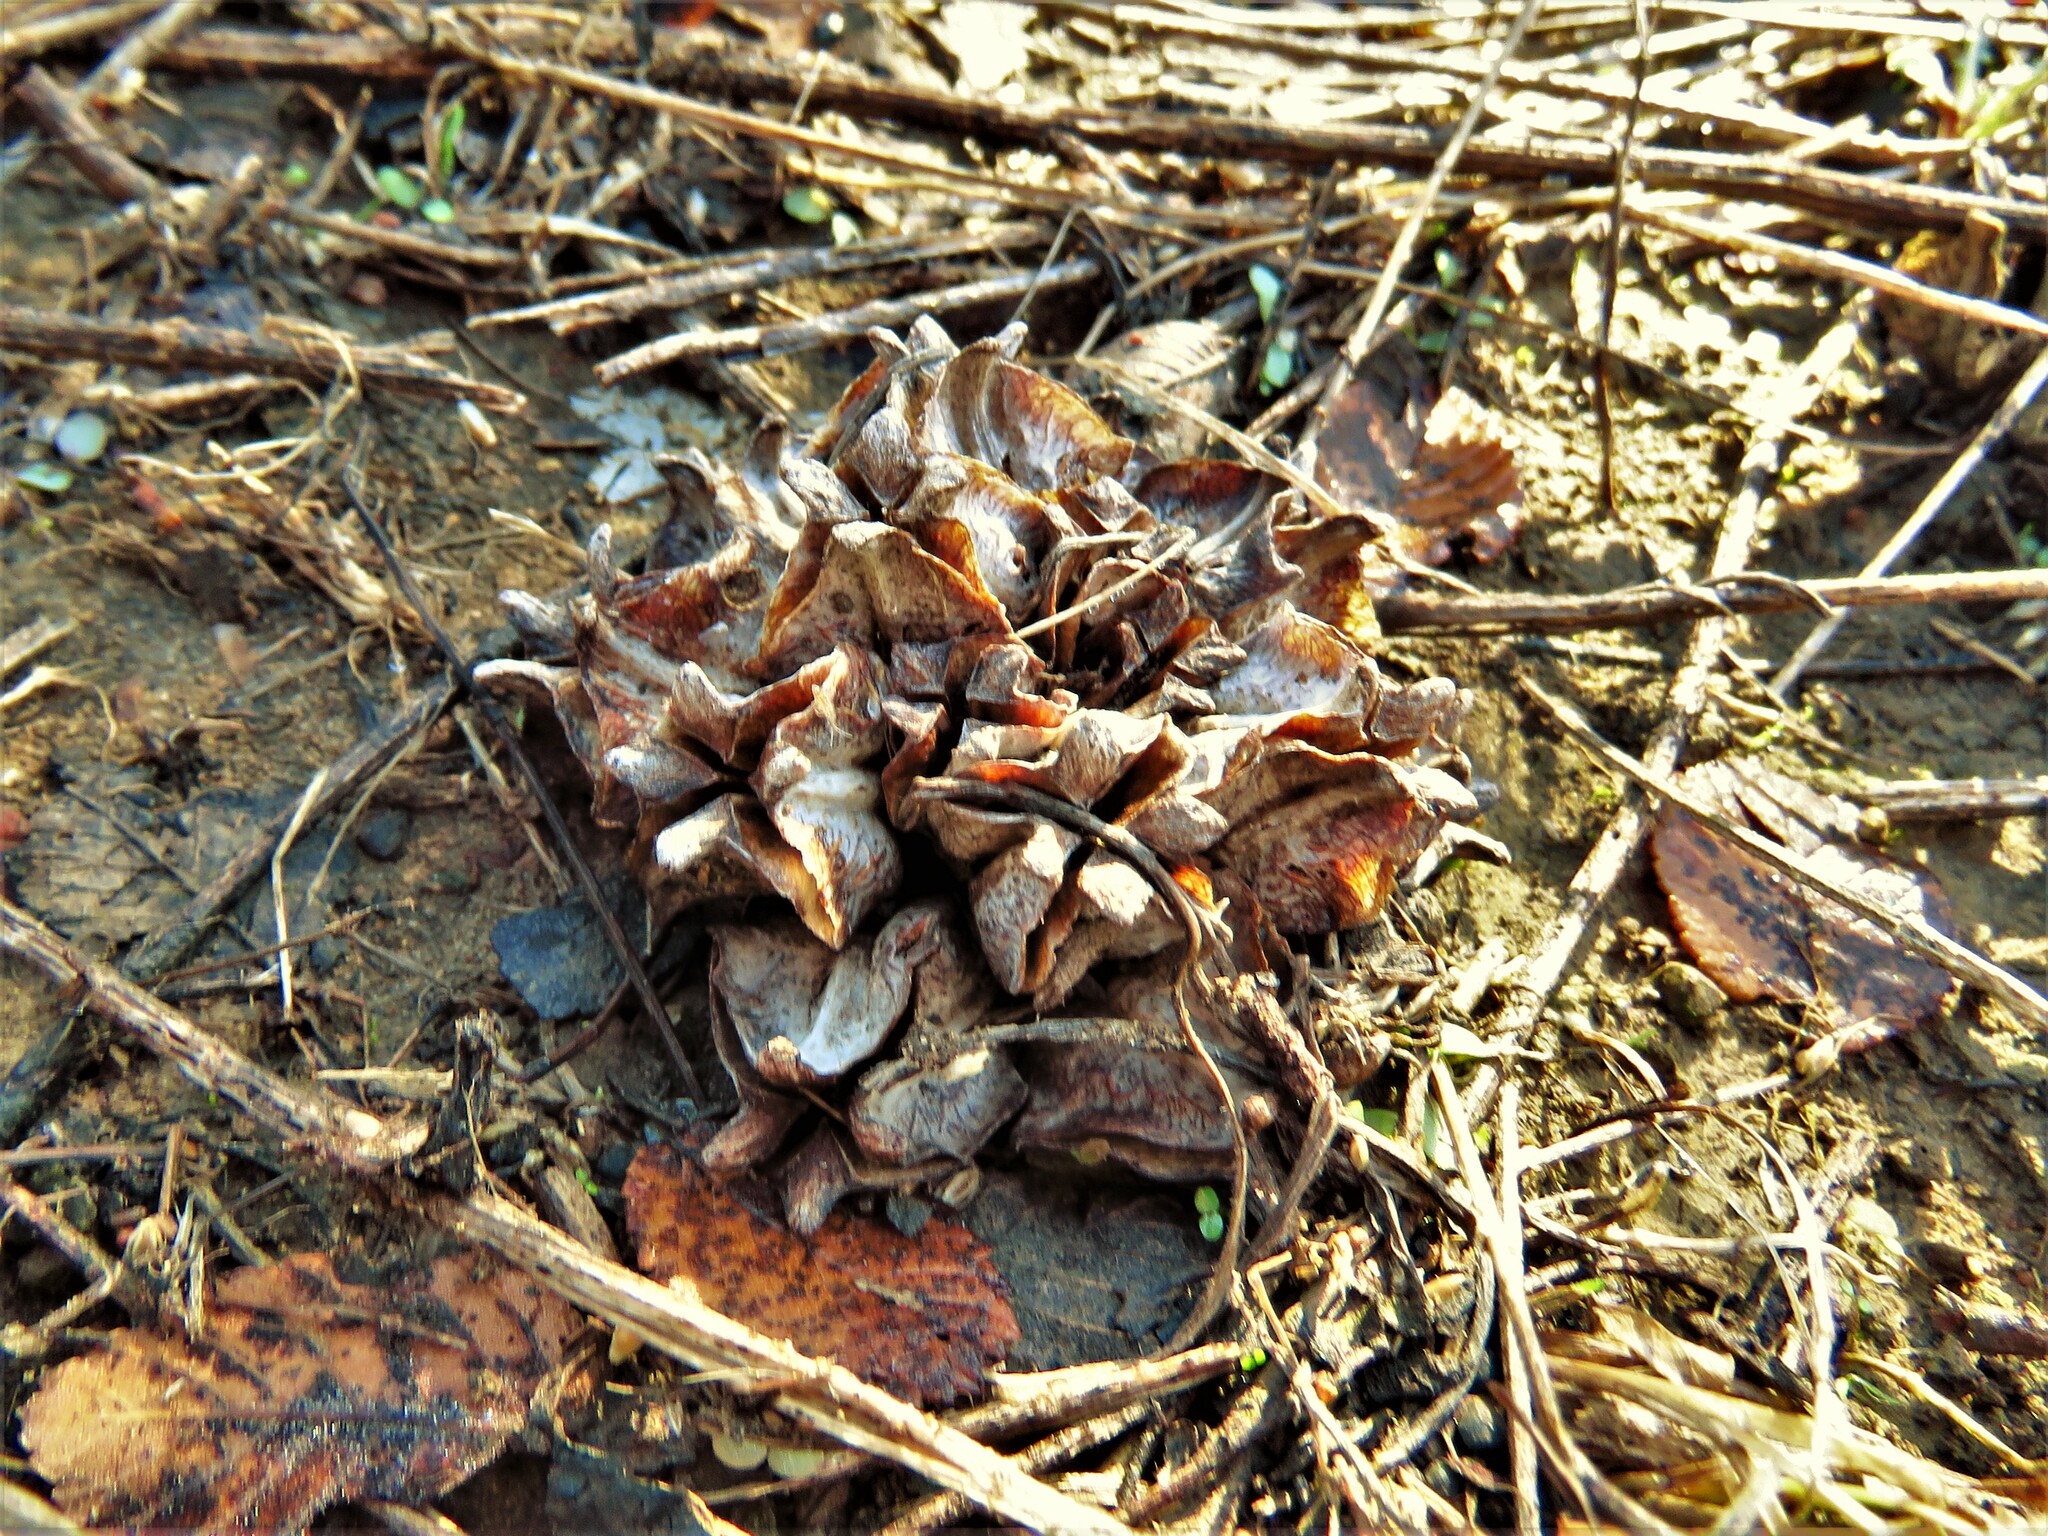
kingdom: Plantae
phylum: Tracheophyta
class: Magnoliopsida
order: Myrtales
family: Onagraceae
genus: Oenothera
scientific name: Oenothera triloba
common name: Sessile evening-primrose
